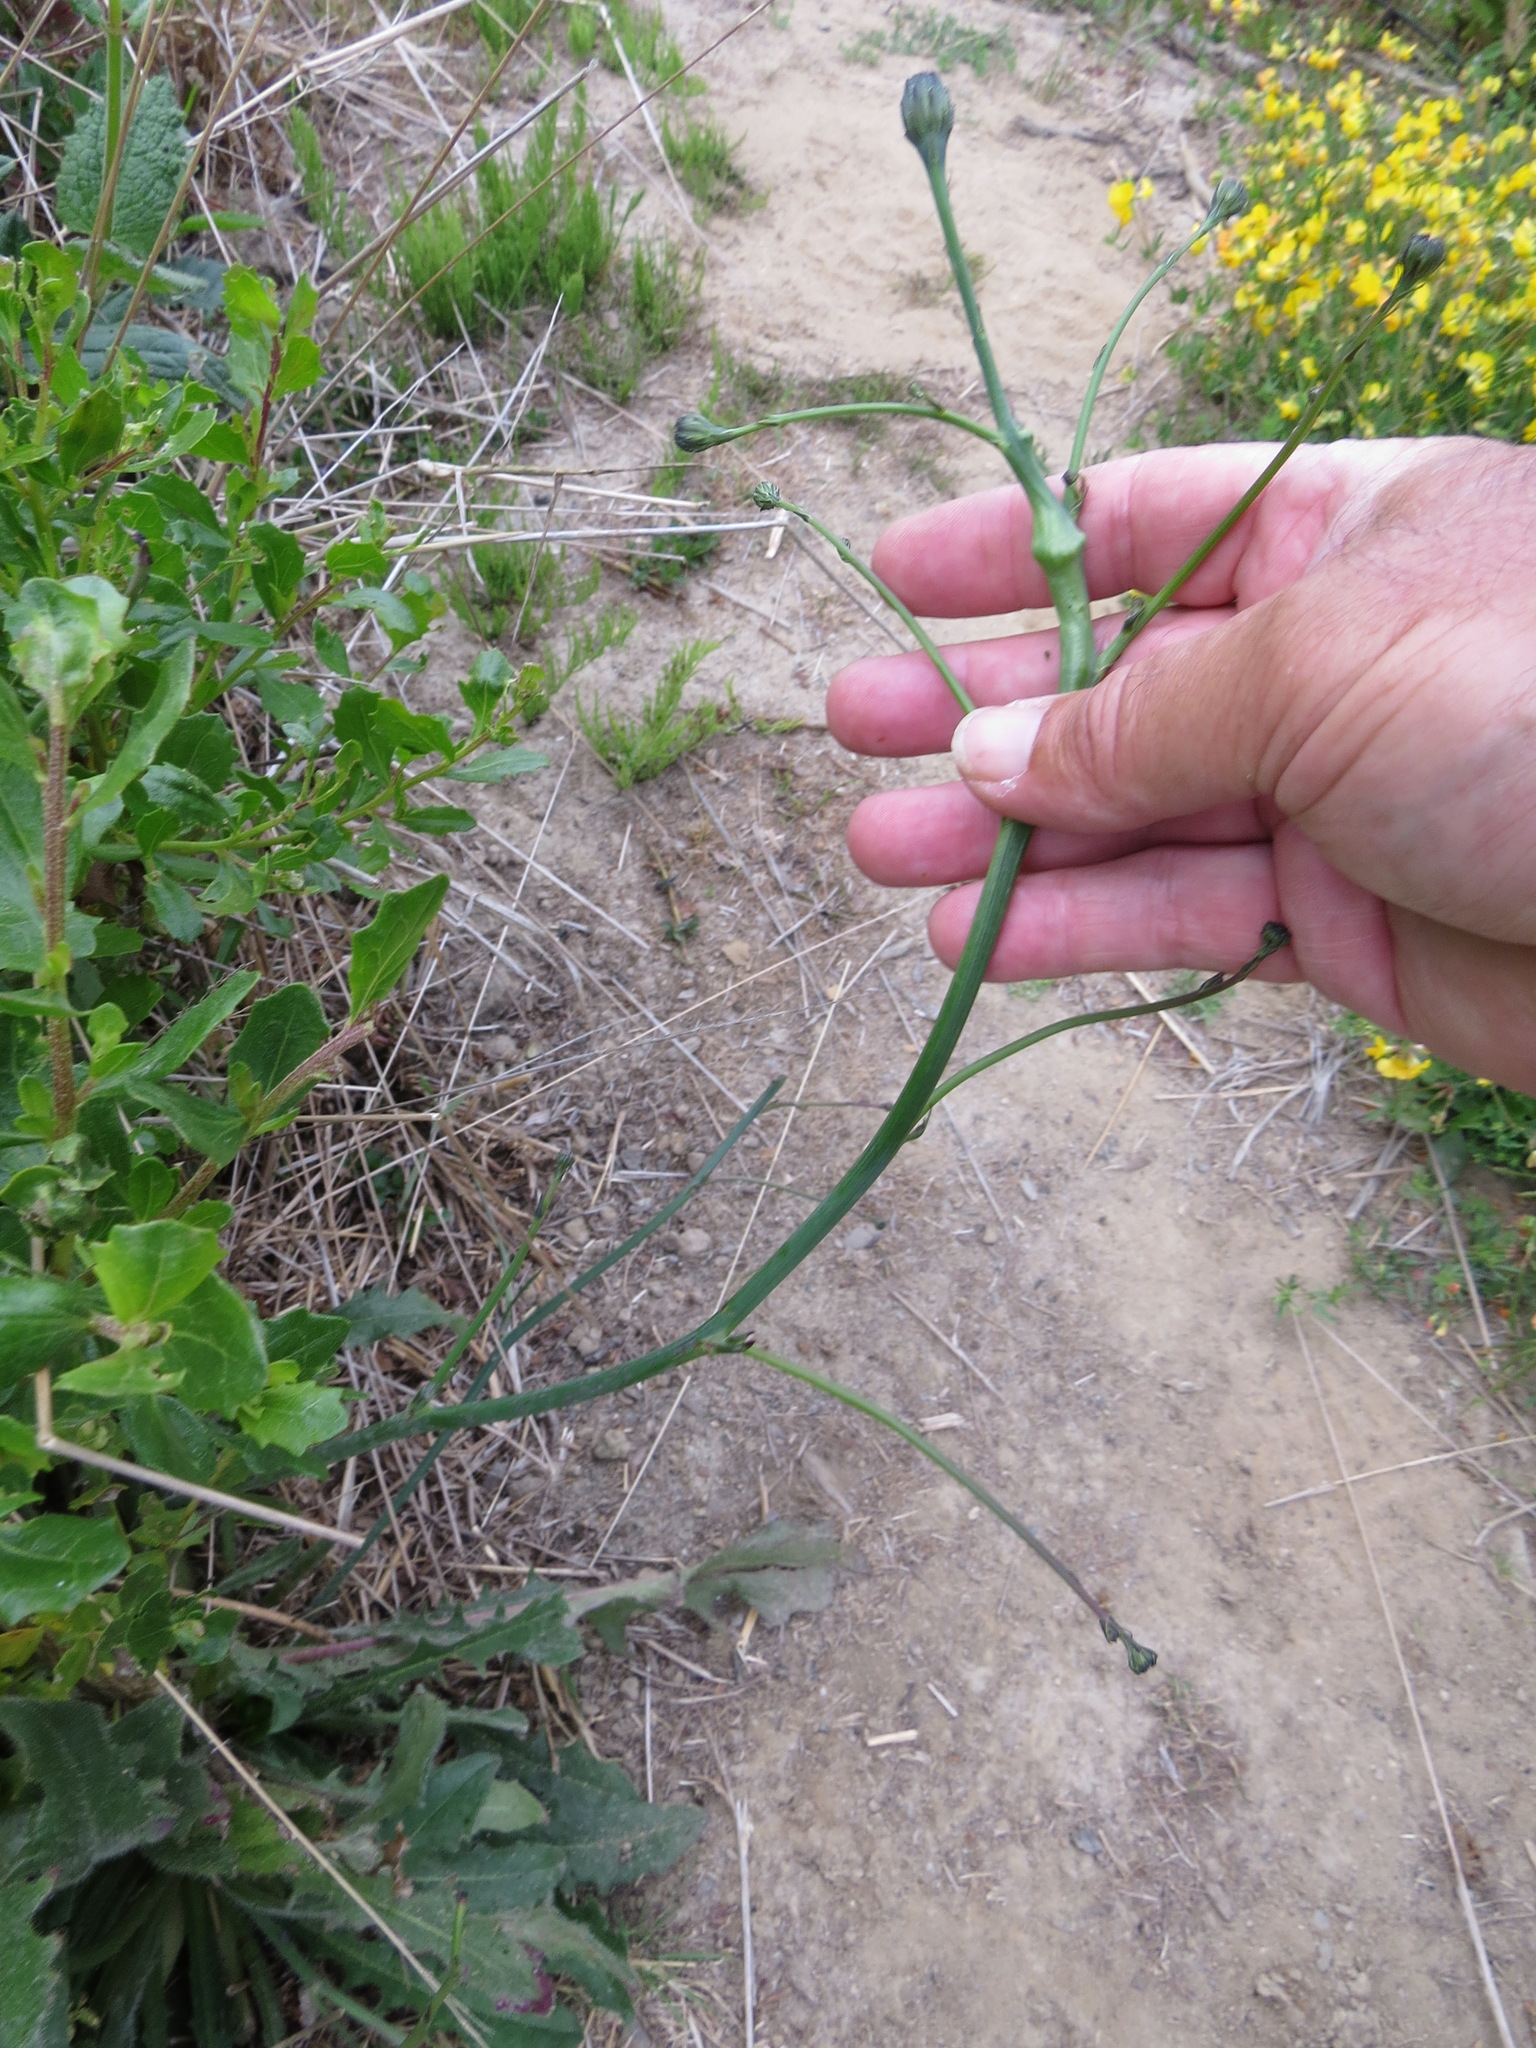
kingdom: Animalia
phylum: Arthropoda
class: Insecta
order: Hymenoptera
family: Cynipidae
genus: Phanacis
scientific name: Phanacis hypochoeridis
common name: Gall wasp
